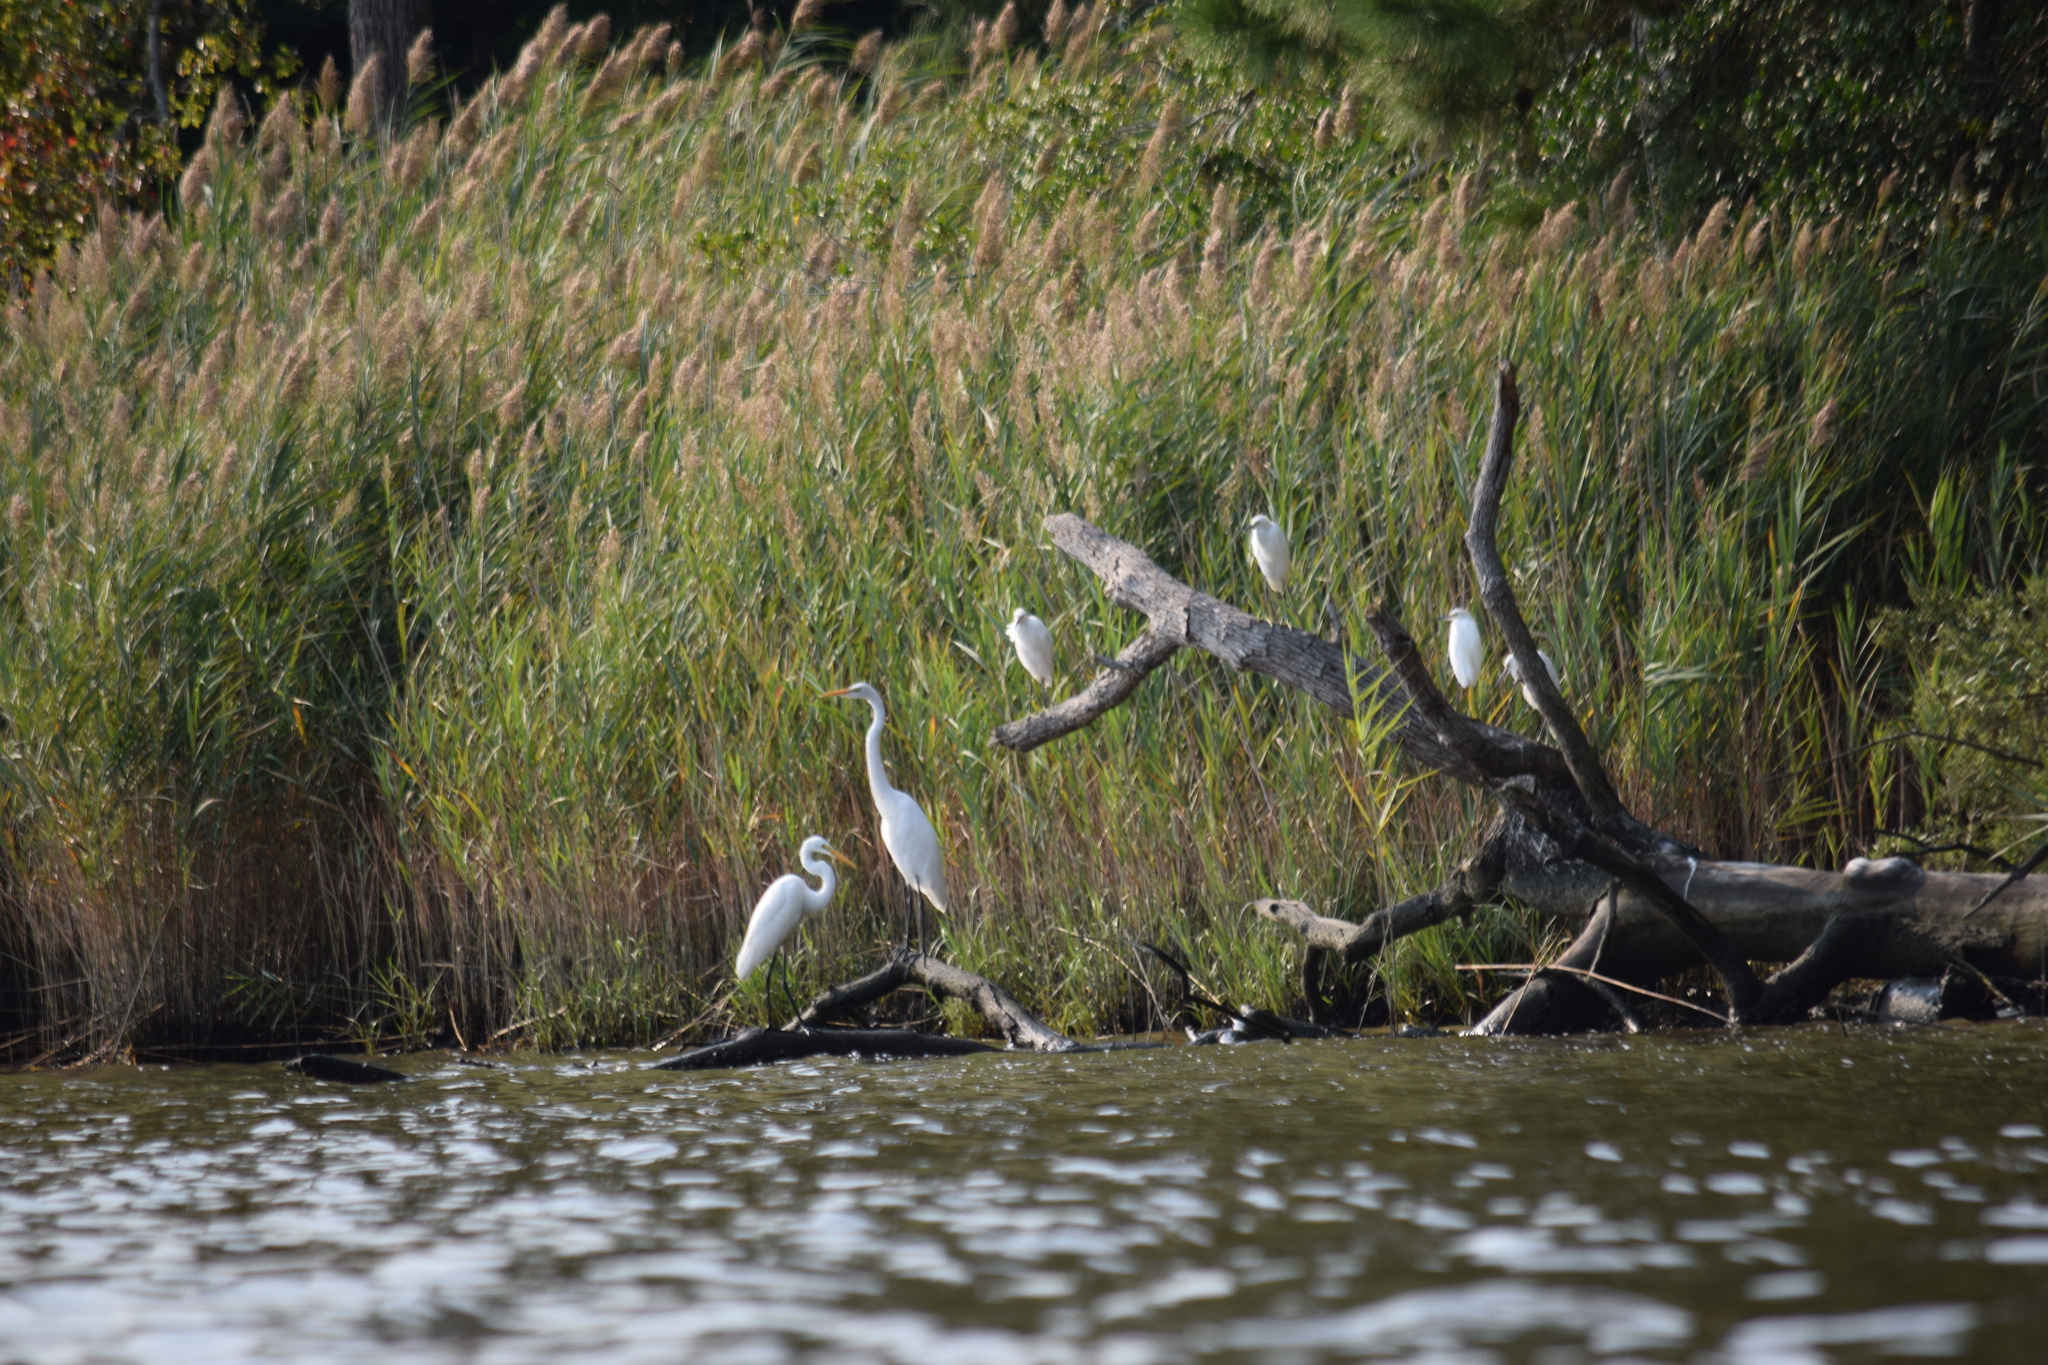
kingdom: Animalia
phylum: Chordata
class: Aves
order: Pelecaniformes
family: Ardeidae
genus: Ardea
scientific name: Ardea alba
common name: Great egret
